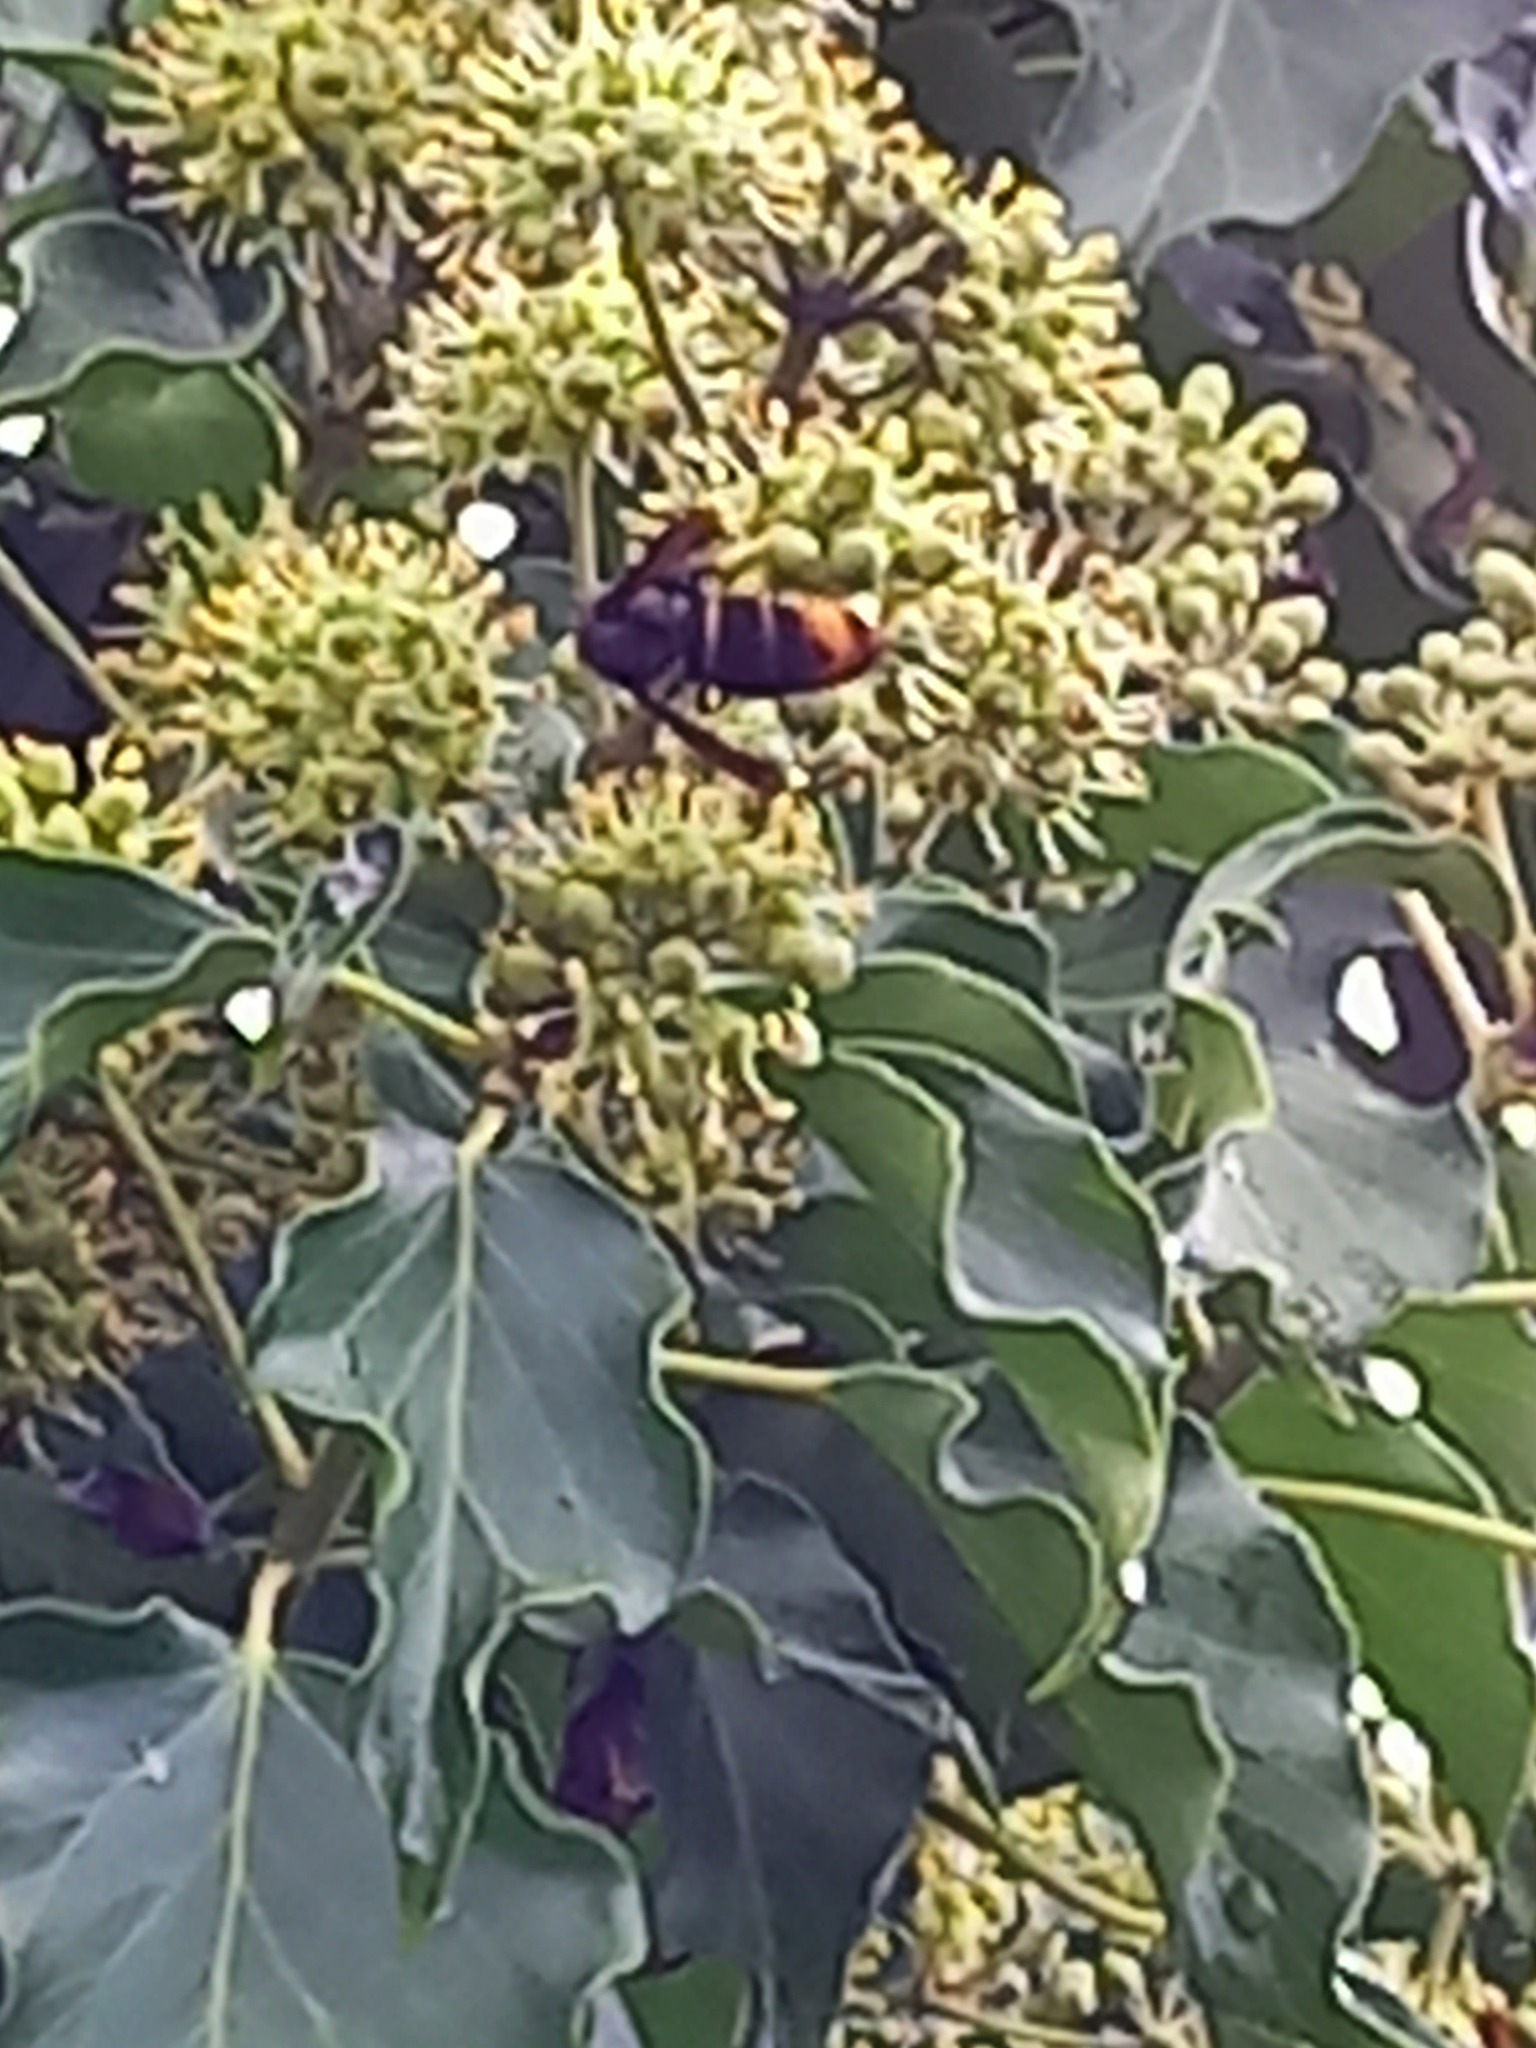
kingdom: Animalia
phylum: Arthropoda
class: Insecta
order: Hymenoptera
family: Vespidae
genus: Vespa
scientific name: Vespa velutina
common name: Asian hornet
